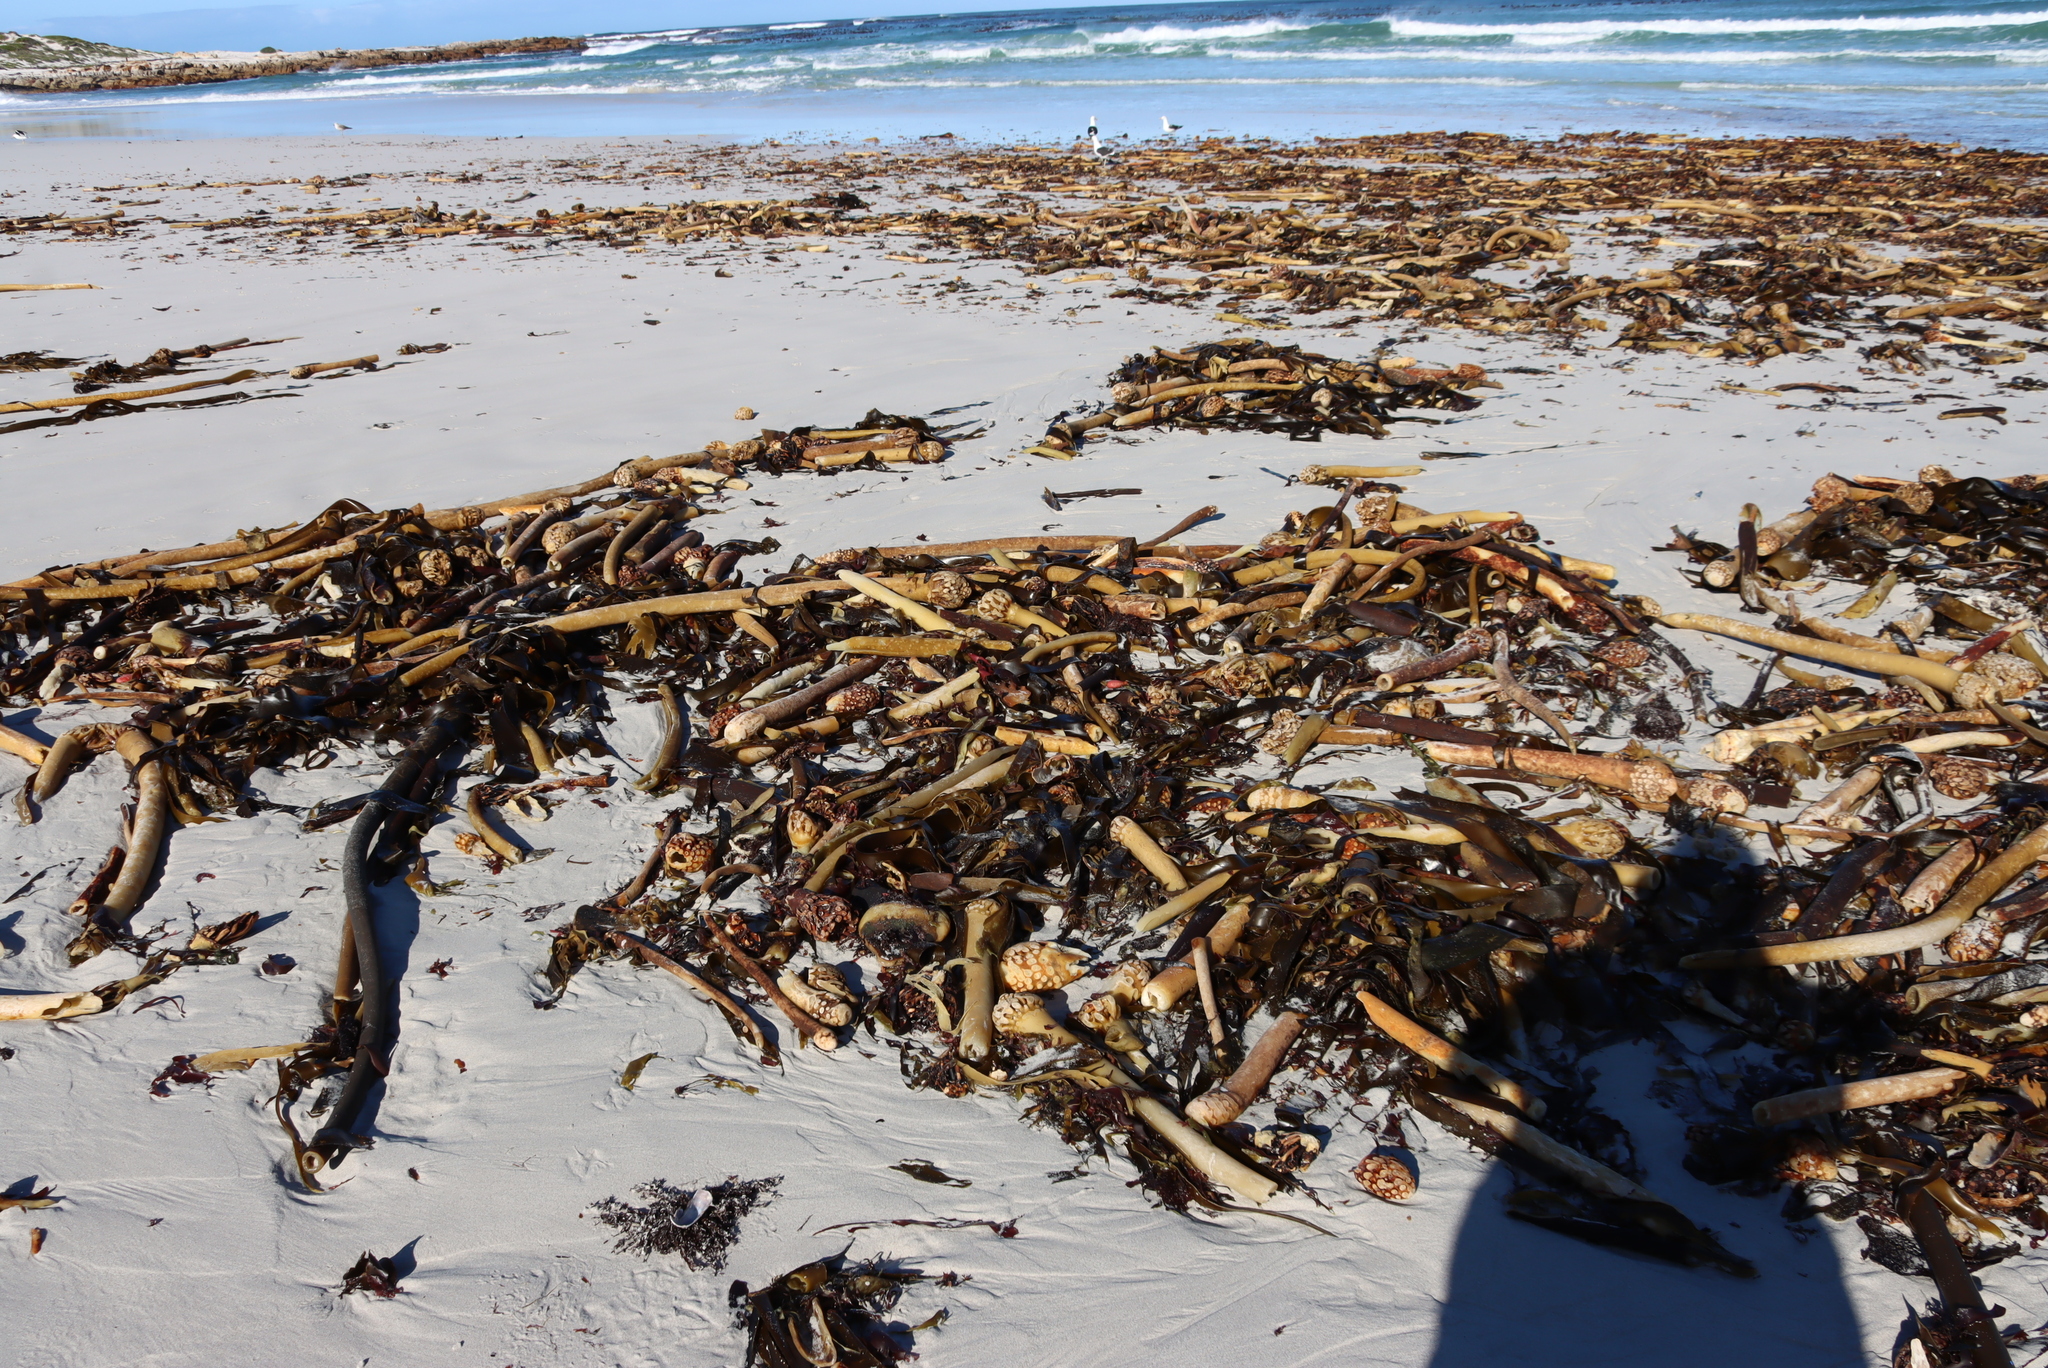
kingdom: Chromista
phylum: Ochrophyta
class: Phaeophyceae
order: Laminariales
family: Lessoniaceae
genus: Ecklonia
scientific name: Ecklonia
